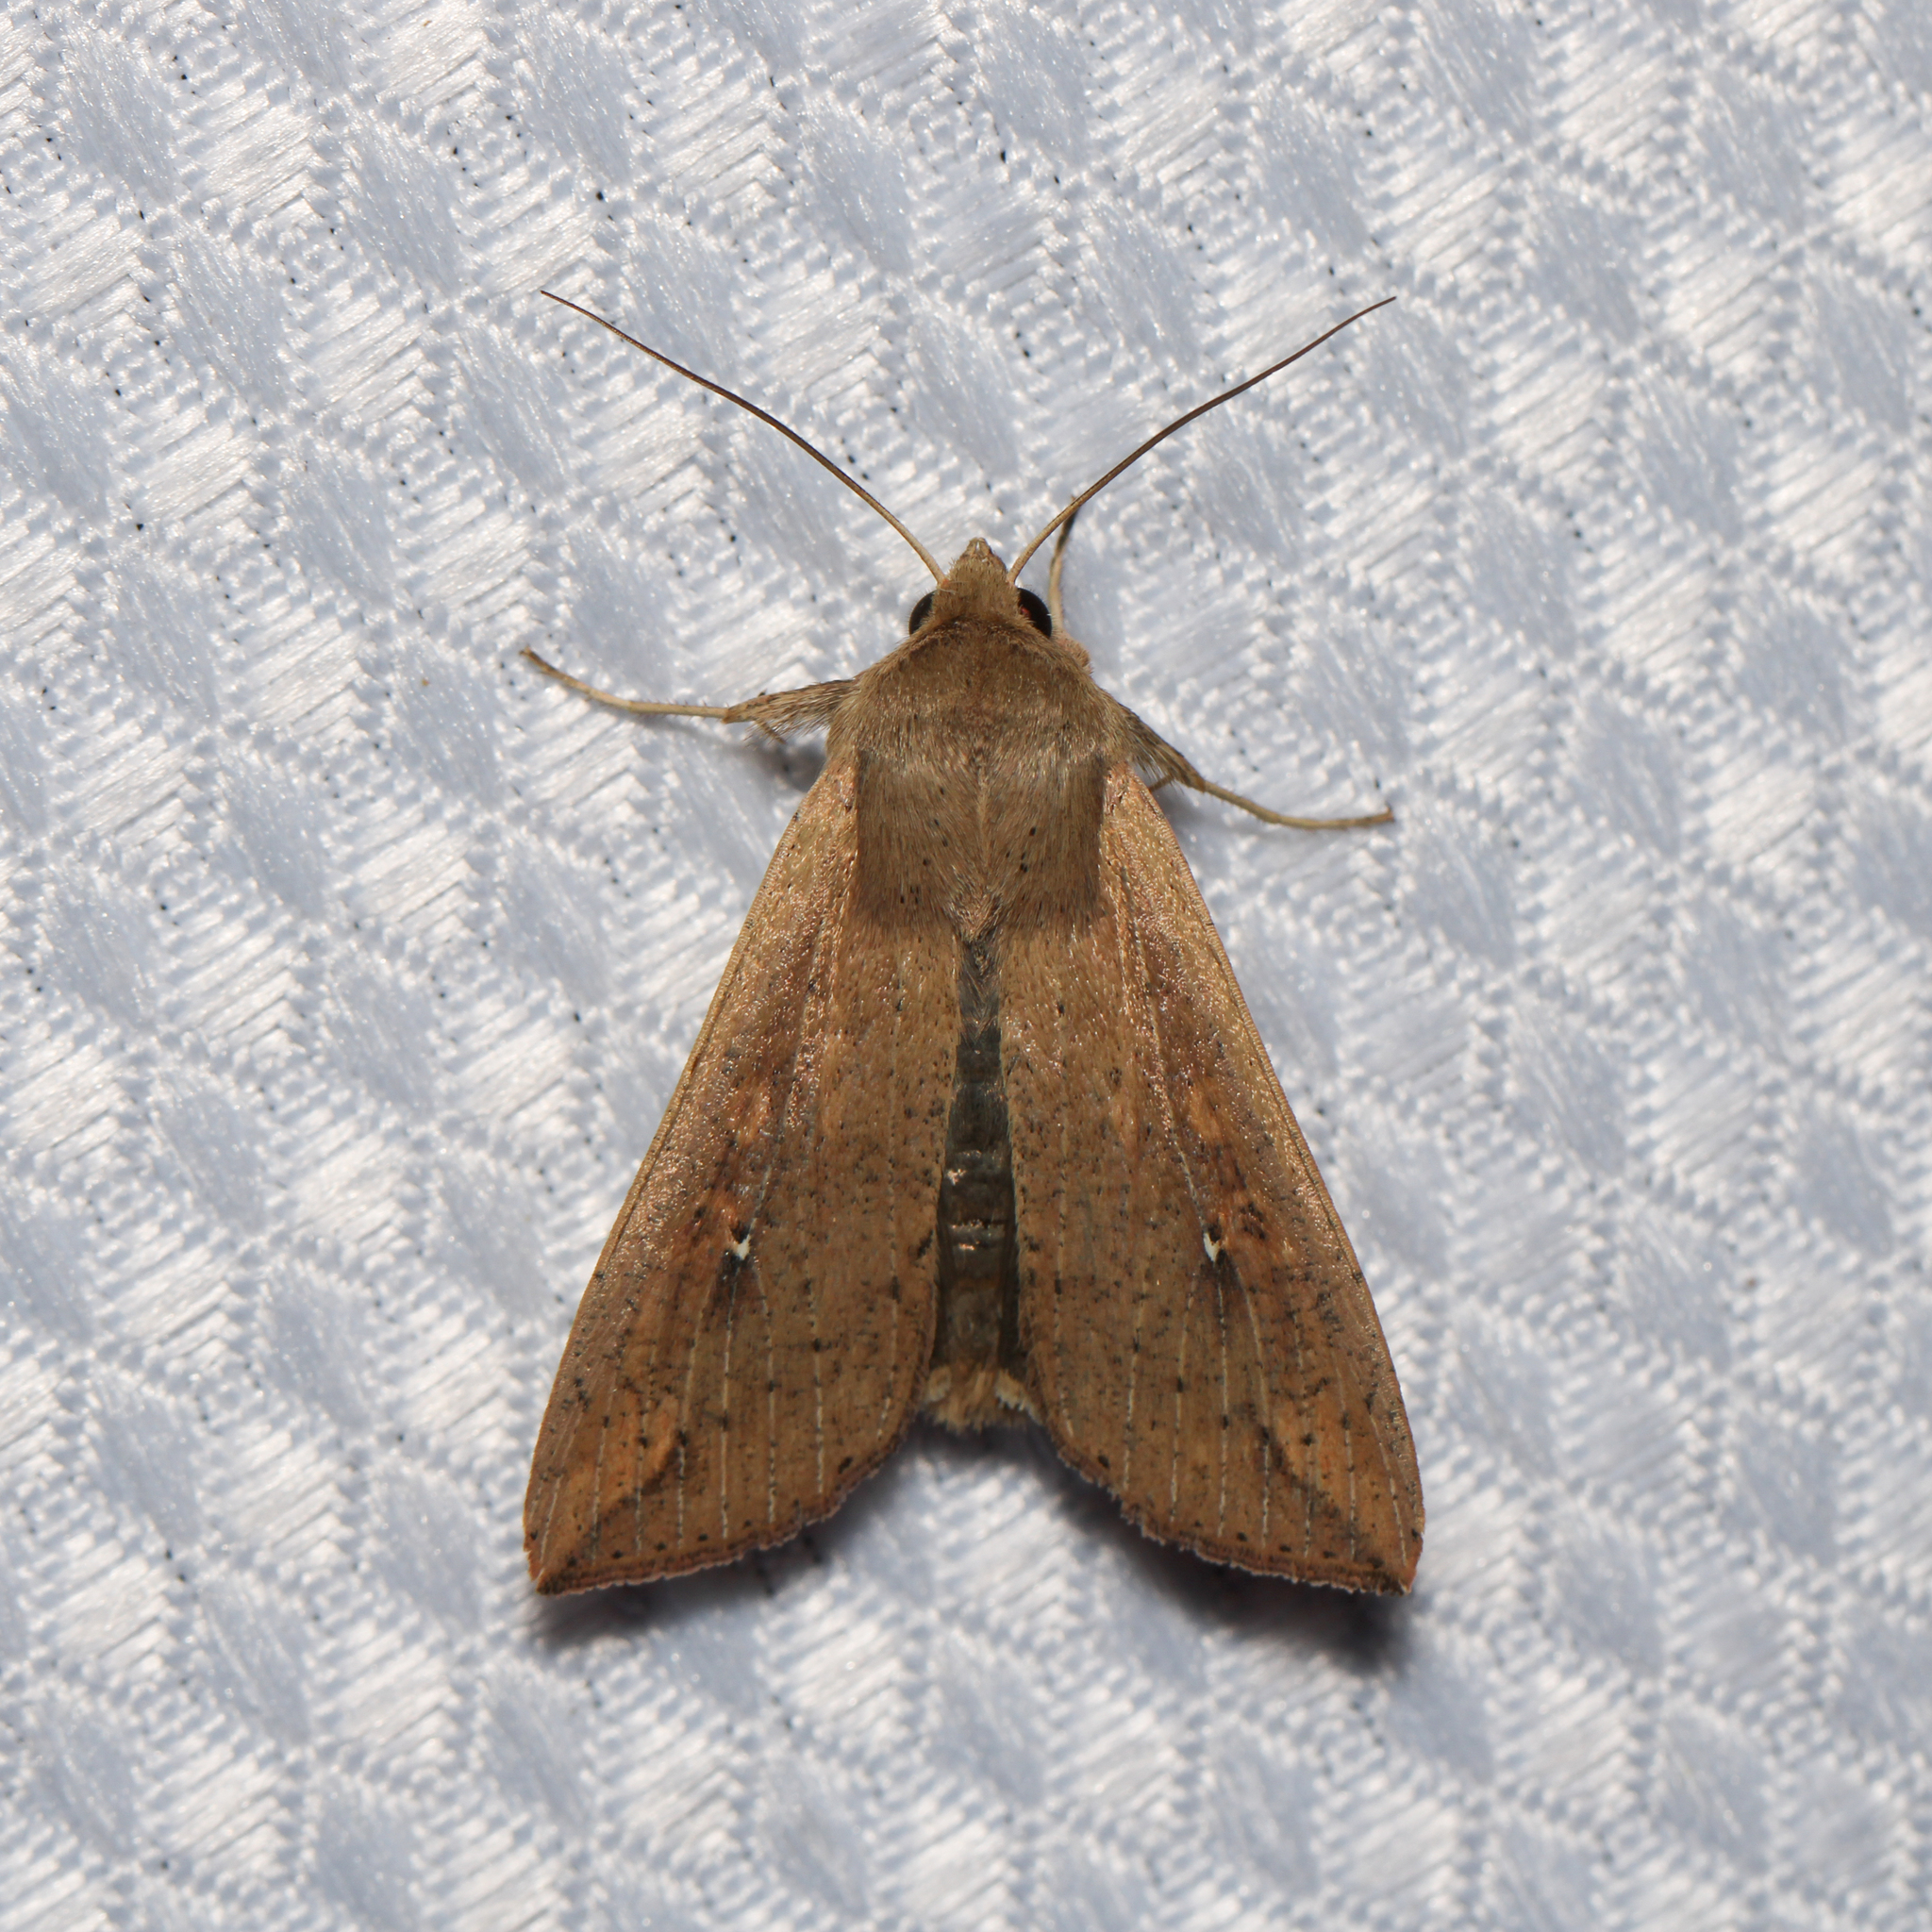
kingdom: Animalia
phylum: Arthropoda
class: Insecta
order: Lepidoptera
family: Noctuidae
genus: Mythimna
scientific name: Mythimna unipuncta
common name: White-speck
